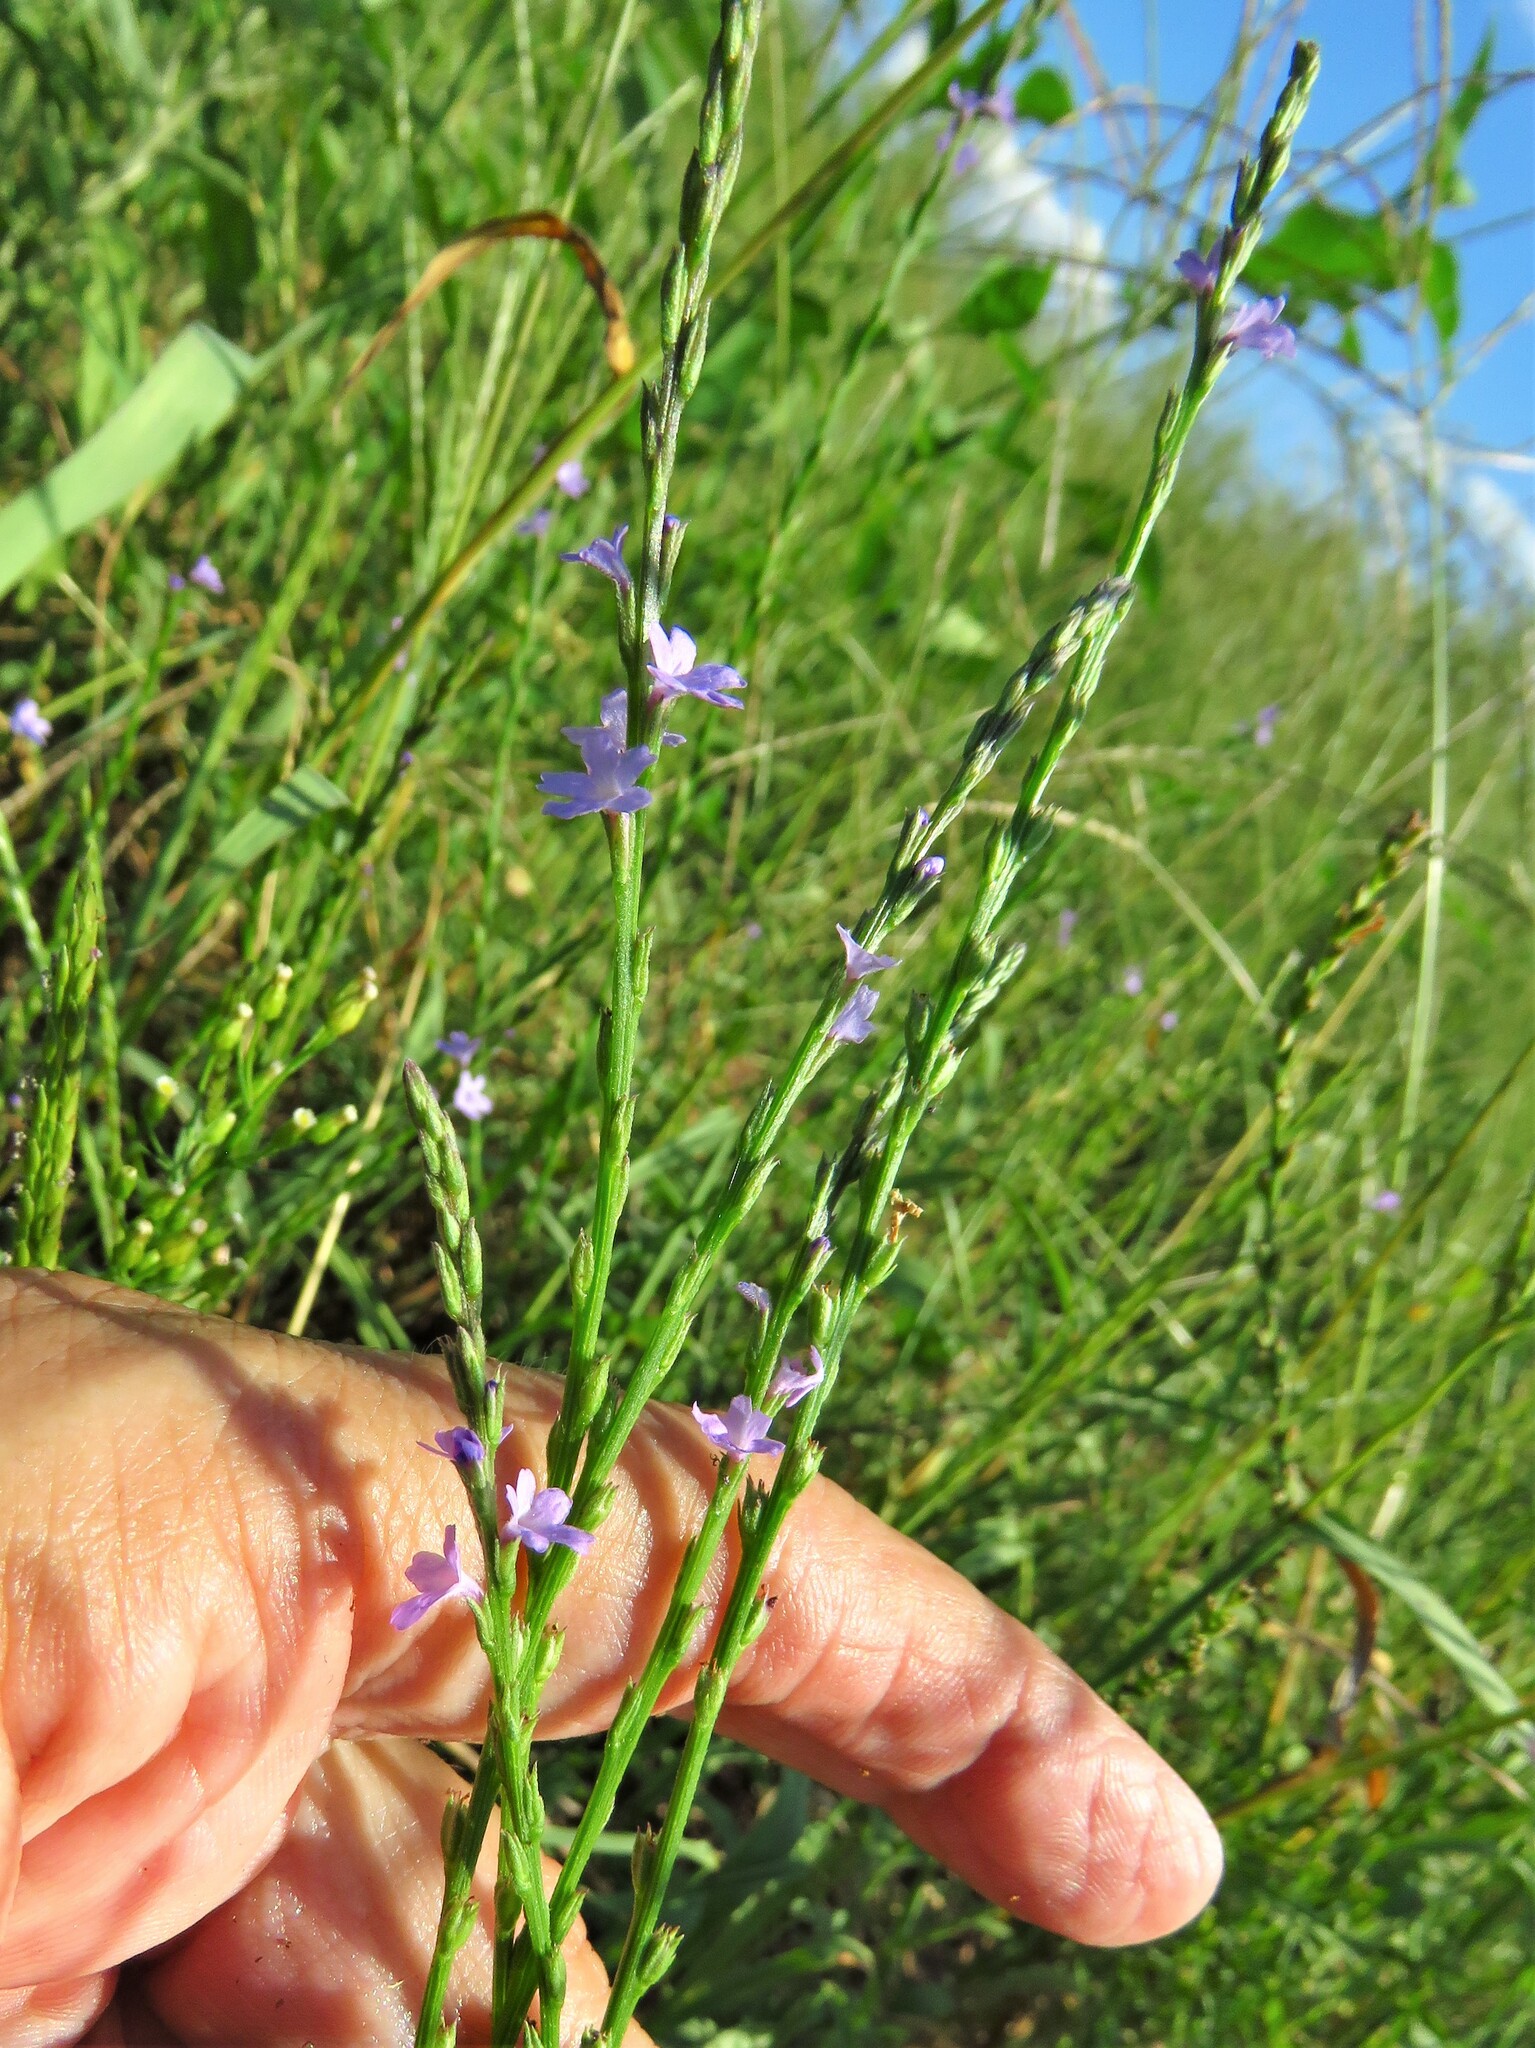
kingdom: Plantae
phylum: Tracheophyta
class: Magnoliopsida
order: Lamiales
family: Verbenaceae
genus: Verbena
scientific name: Verbena halei
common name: Texas vervain
